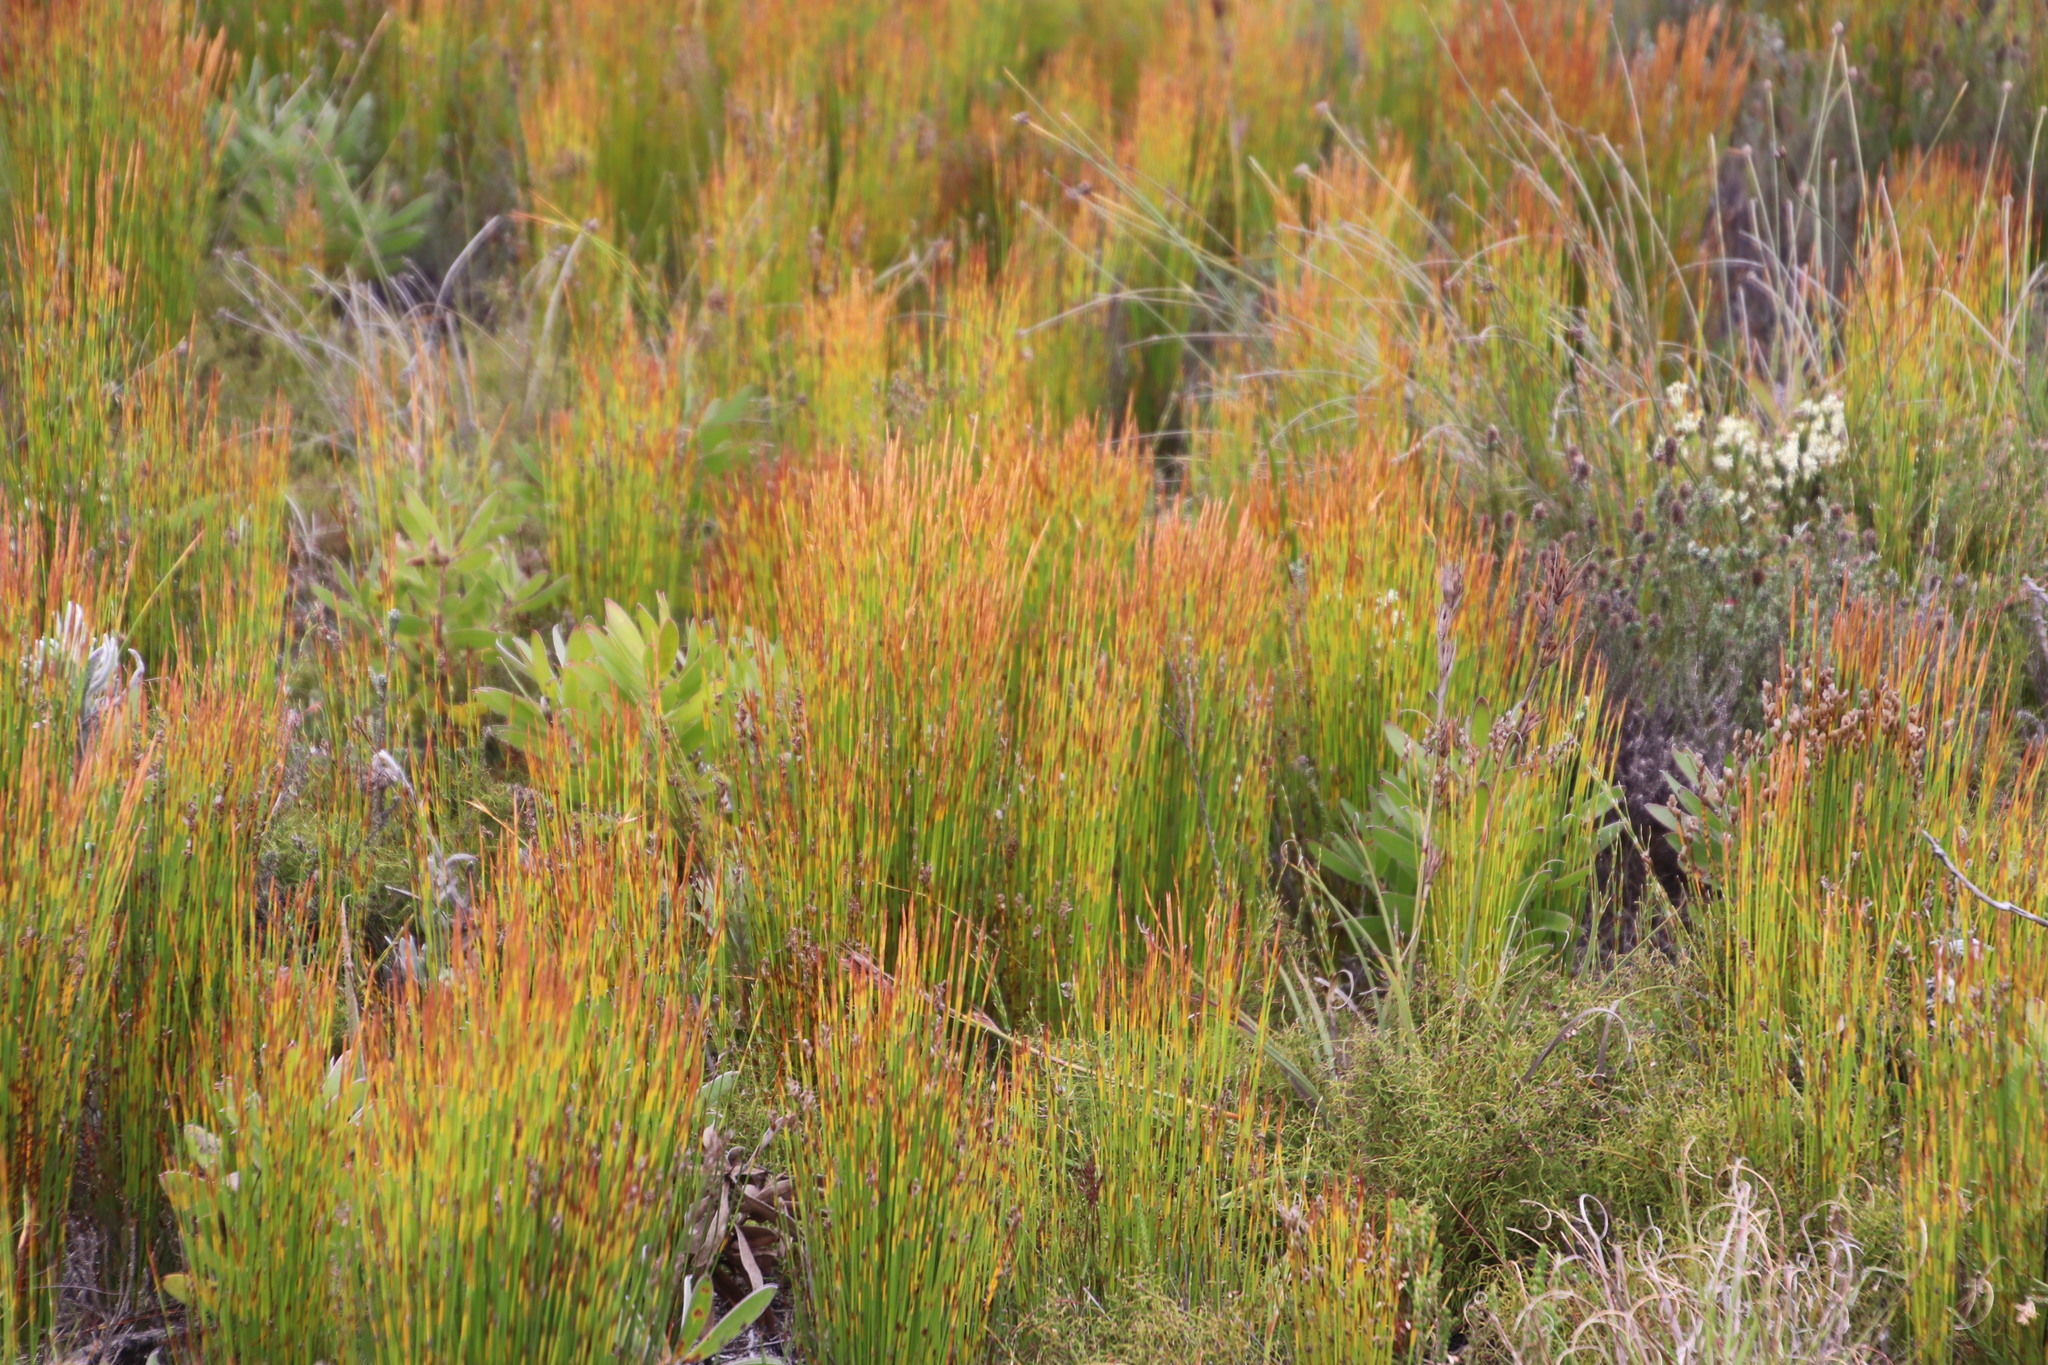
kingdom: Plantae
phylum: Tracheophyta
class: Liliopsida
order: Poales
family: Restionaceae
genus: Elegia
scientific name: Elegia filacea
